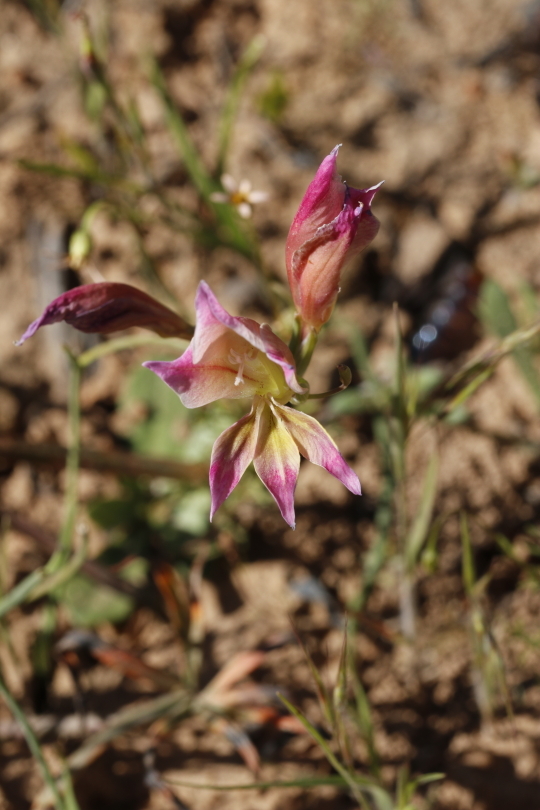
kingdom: Plantae
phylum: Tracheophyta
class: Liliopsida
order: Asparagales
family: Iridaceae
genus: Gladiolus
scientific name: Gladiolus venustus
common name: Purple kalkoentjie
